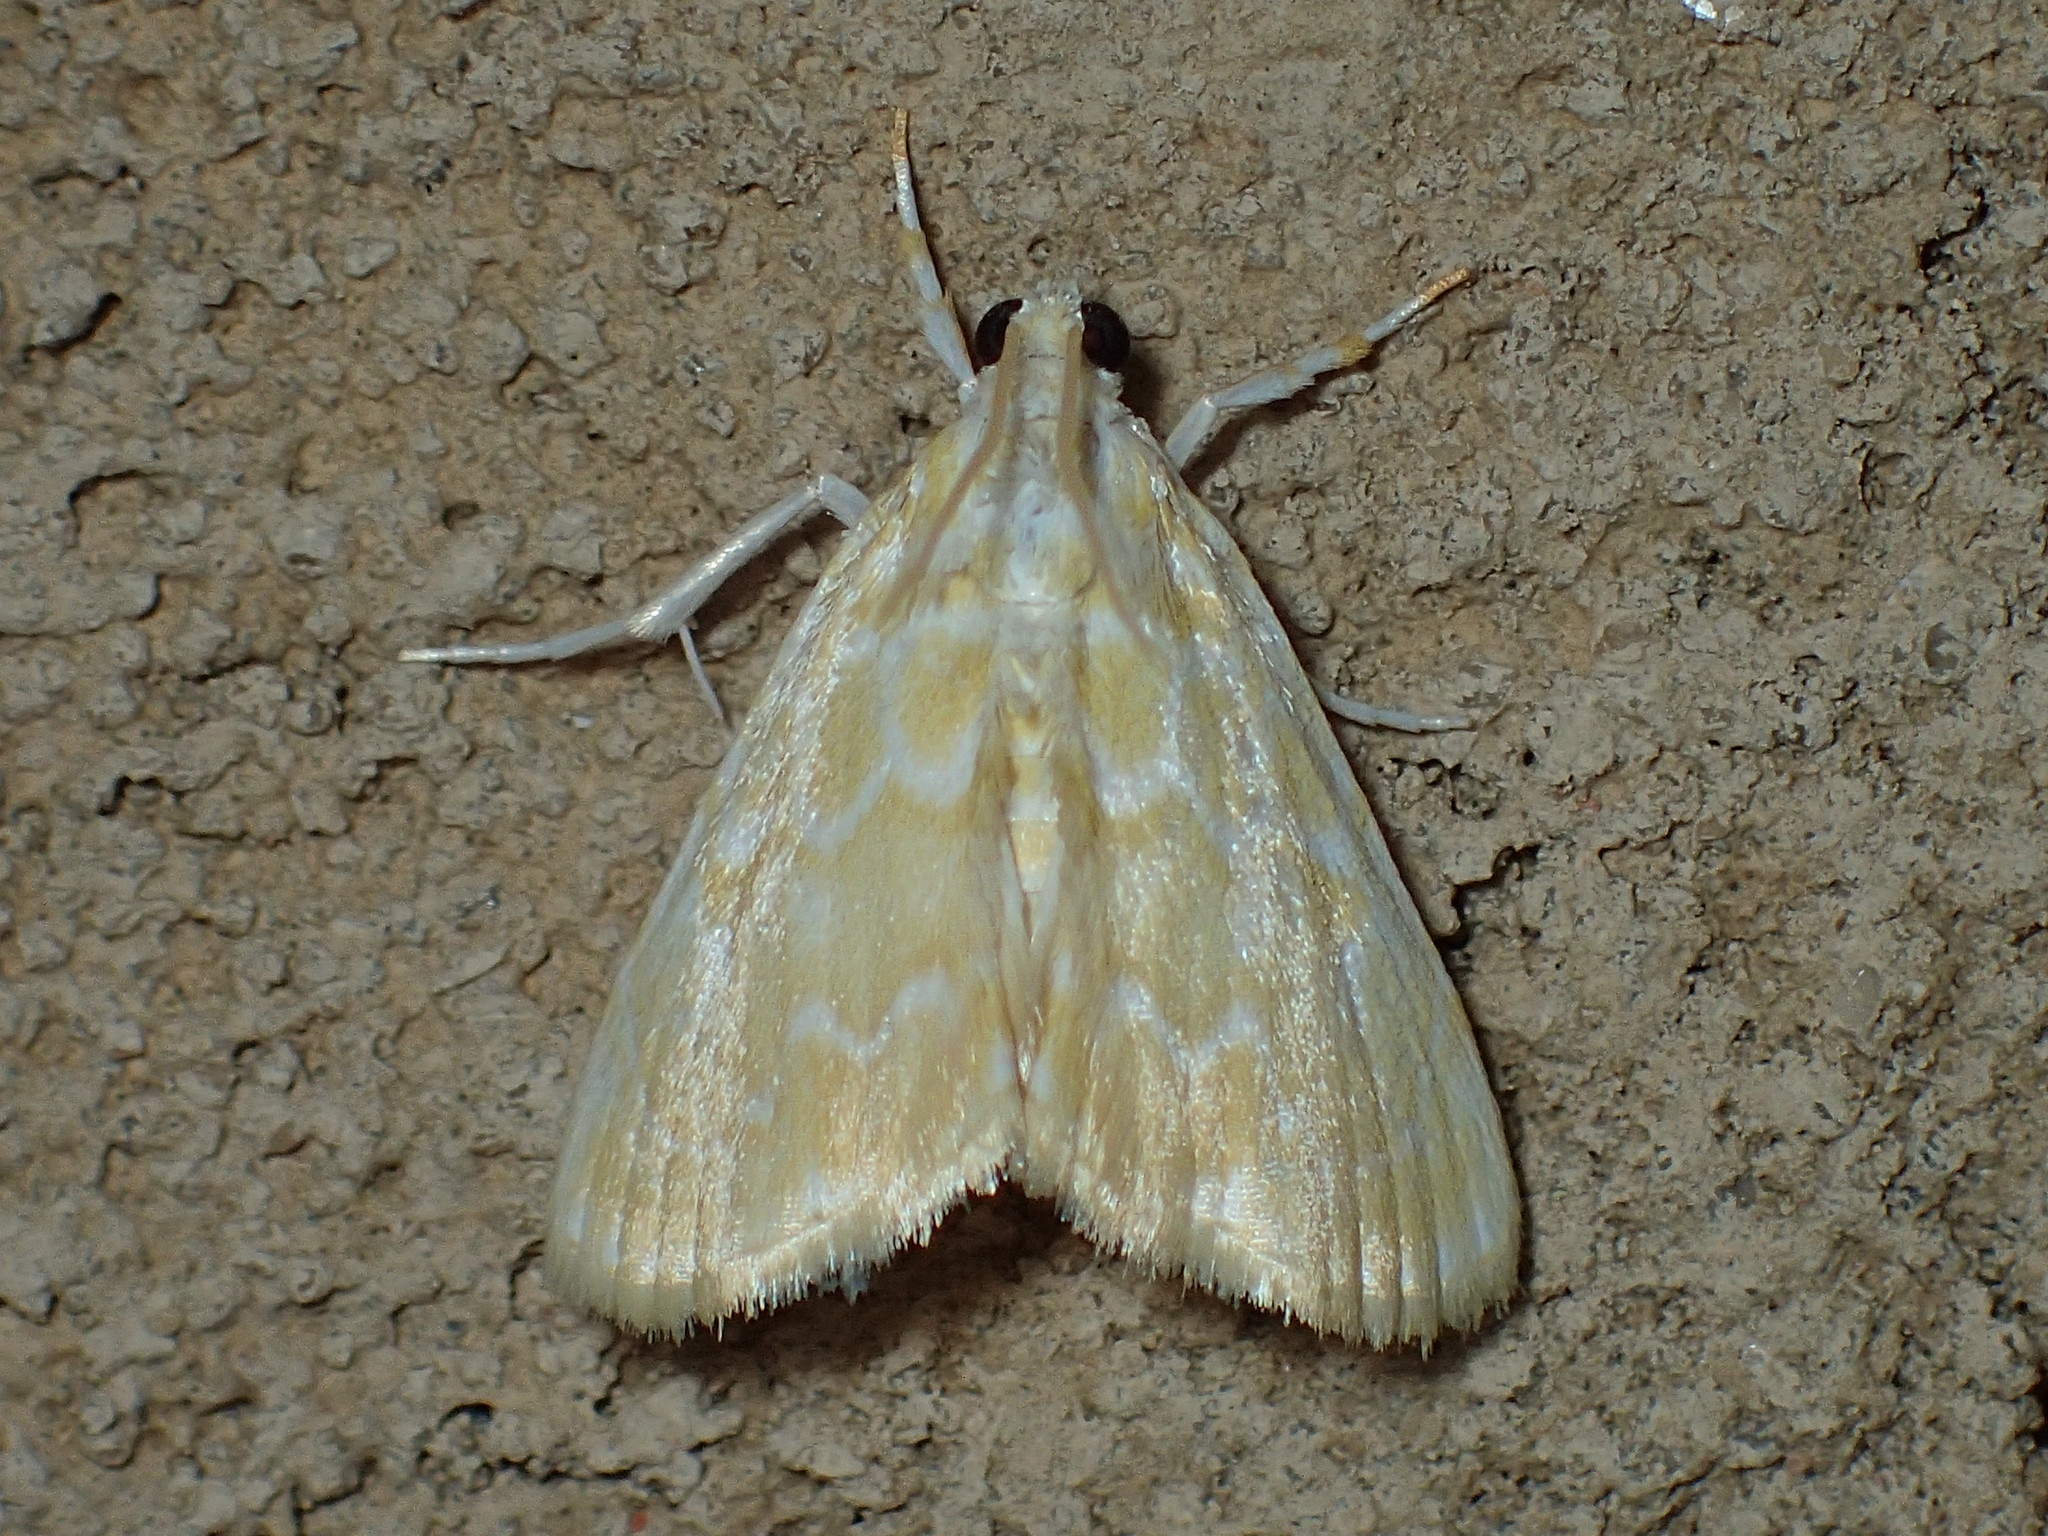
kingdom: Animalia
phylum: Arthropoda
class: Insecta
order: Lepidoptera
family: Crambidae
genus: Glaphyria
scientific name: Glaphyria glaphyralis
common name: Common glaphyria moth
